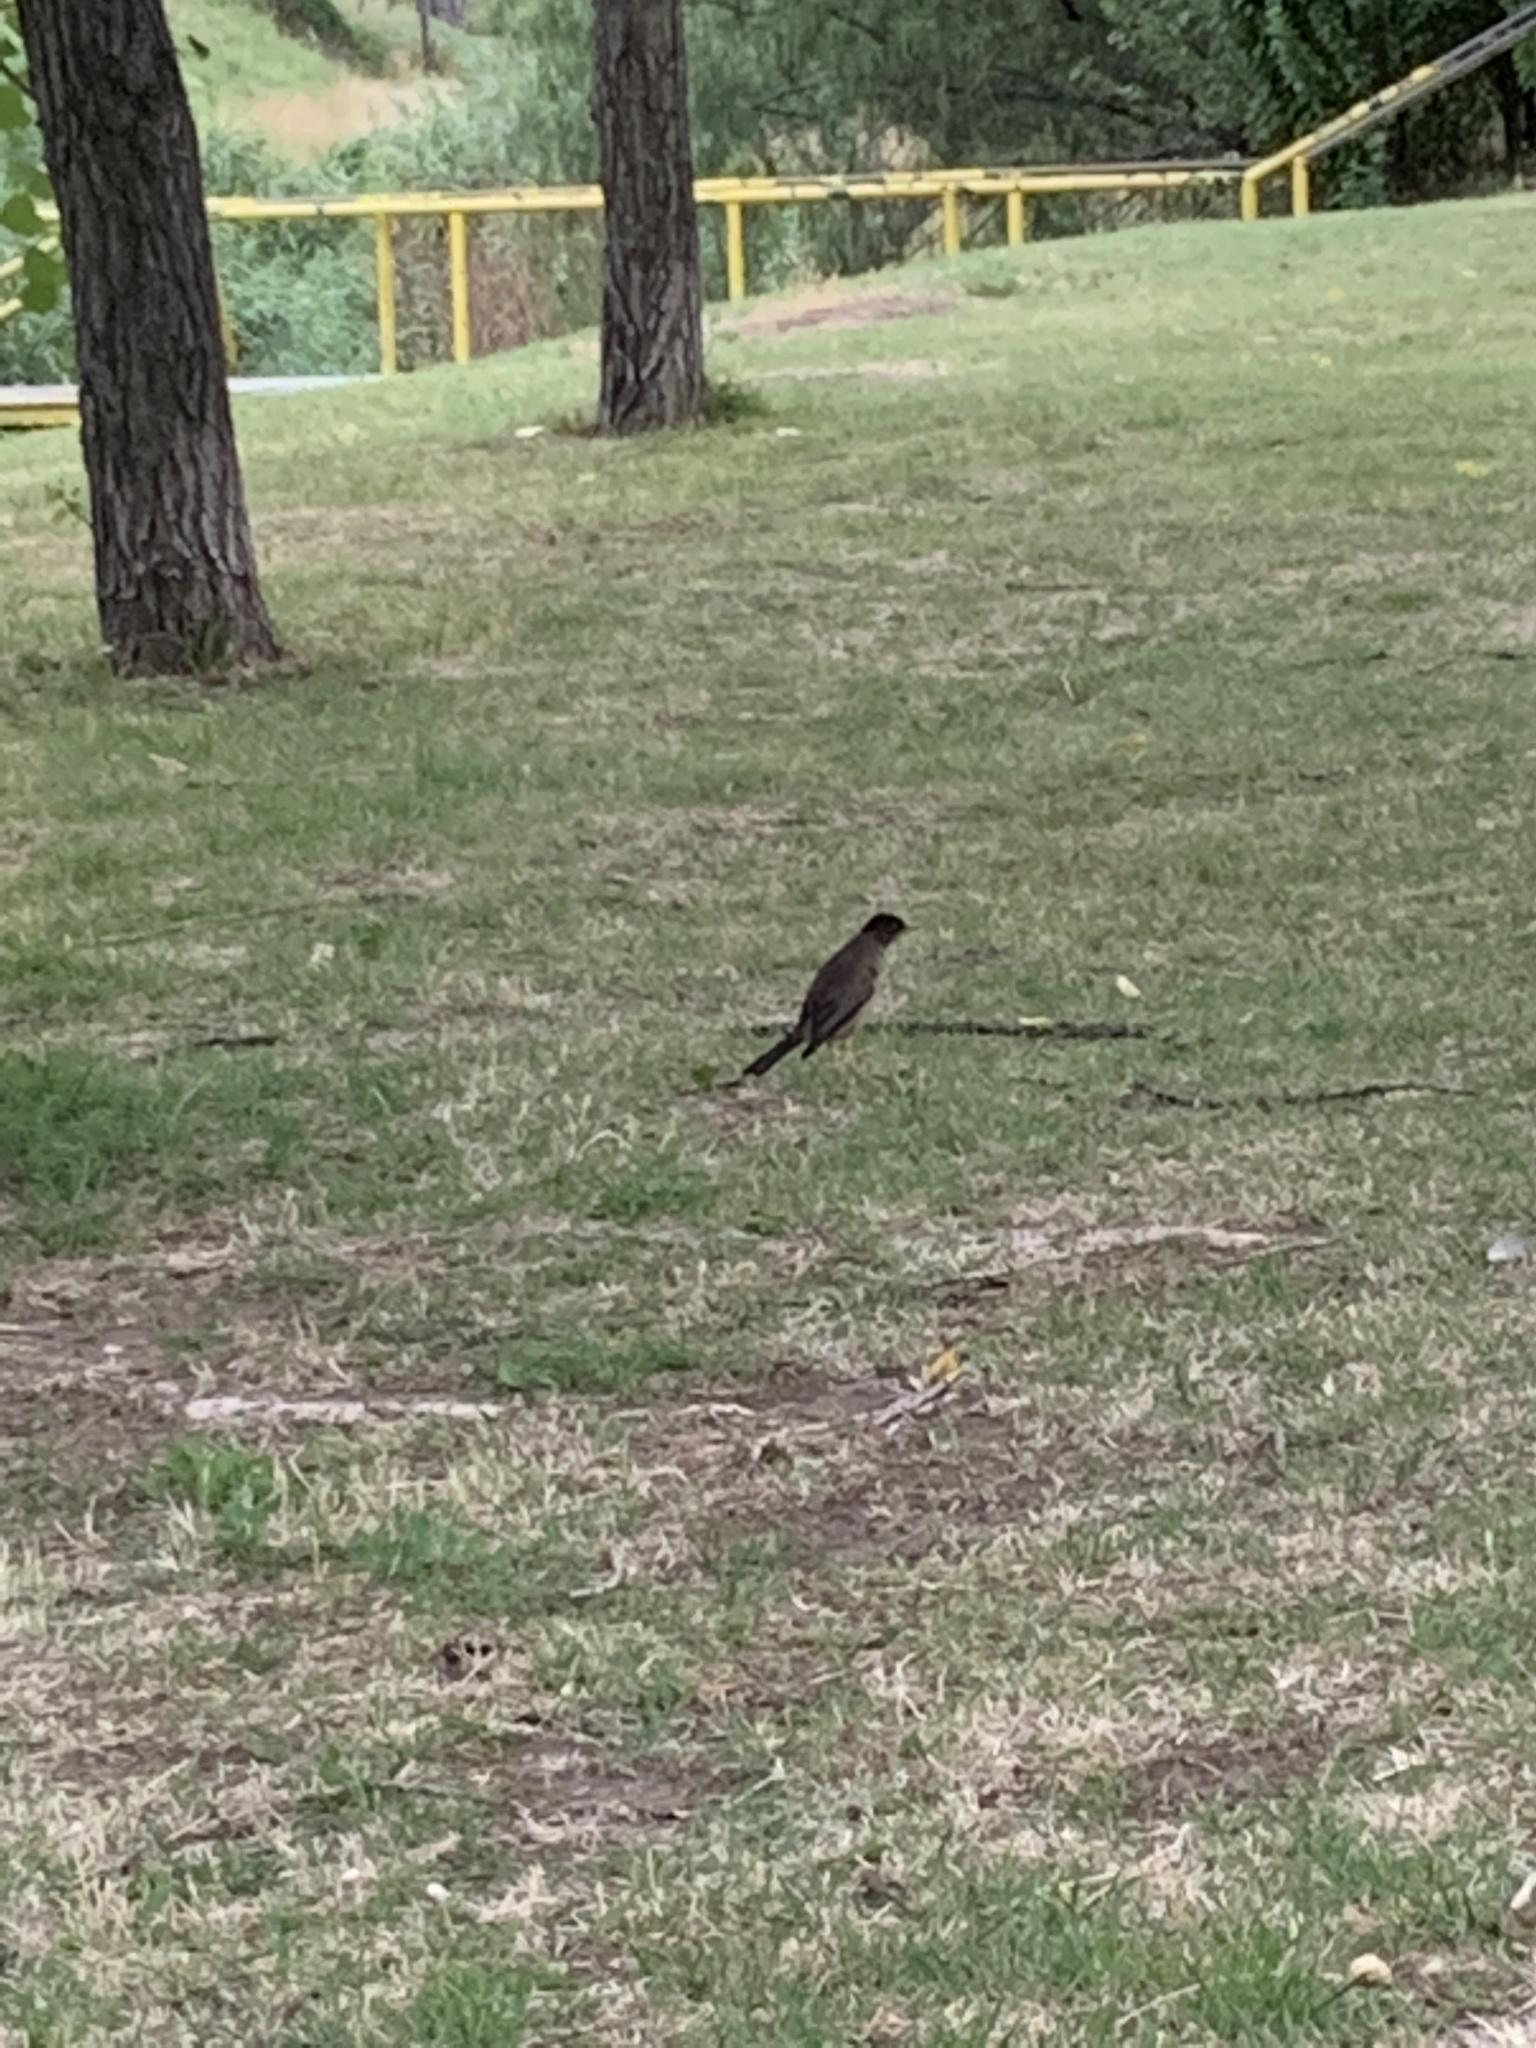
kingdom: Animalia
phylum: Chordata
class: Aves
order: Passeriformes
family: Turdidae
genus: Turdus
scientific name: Turdus falcklandii
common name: Austral thrush
